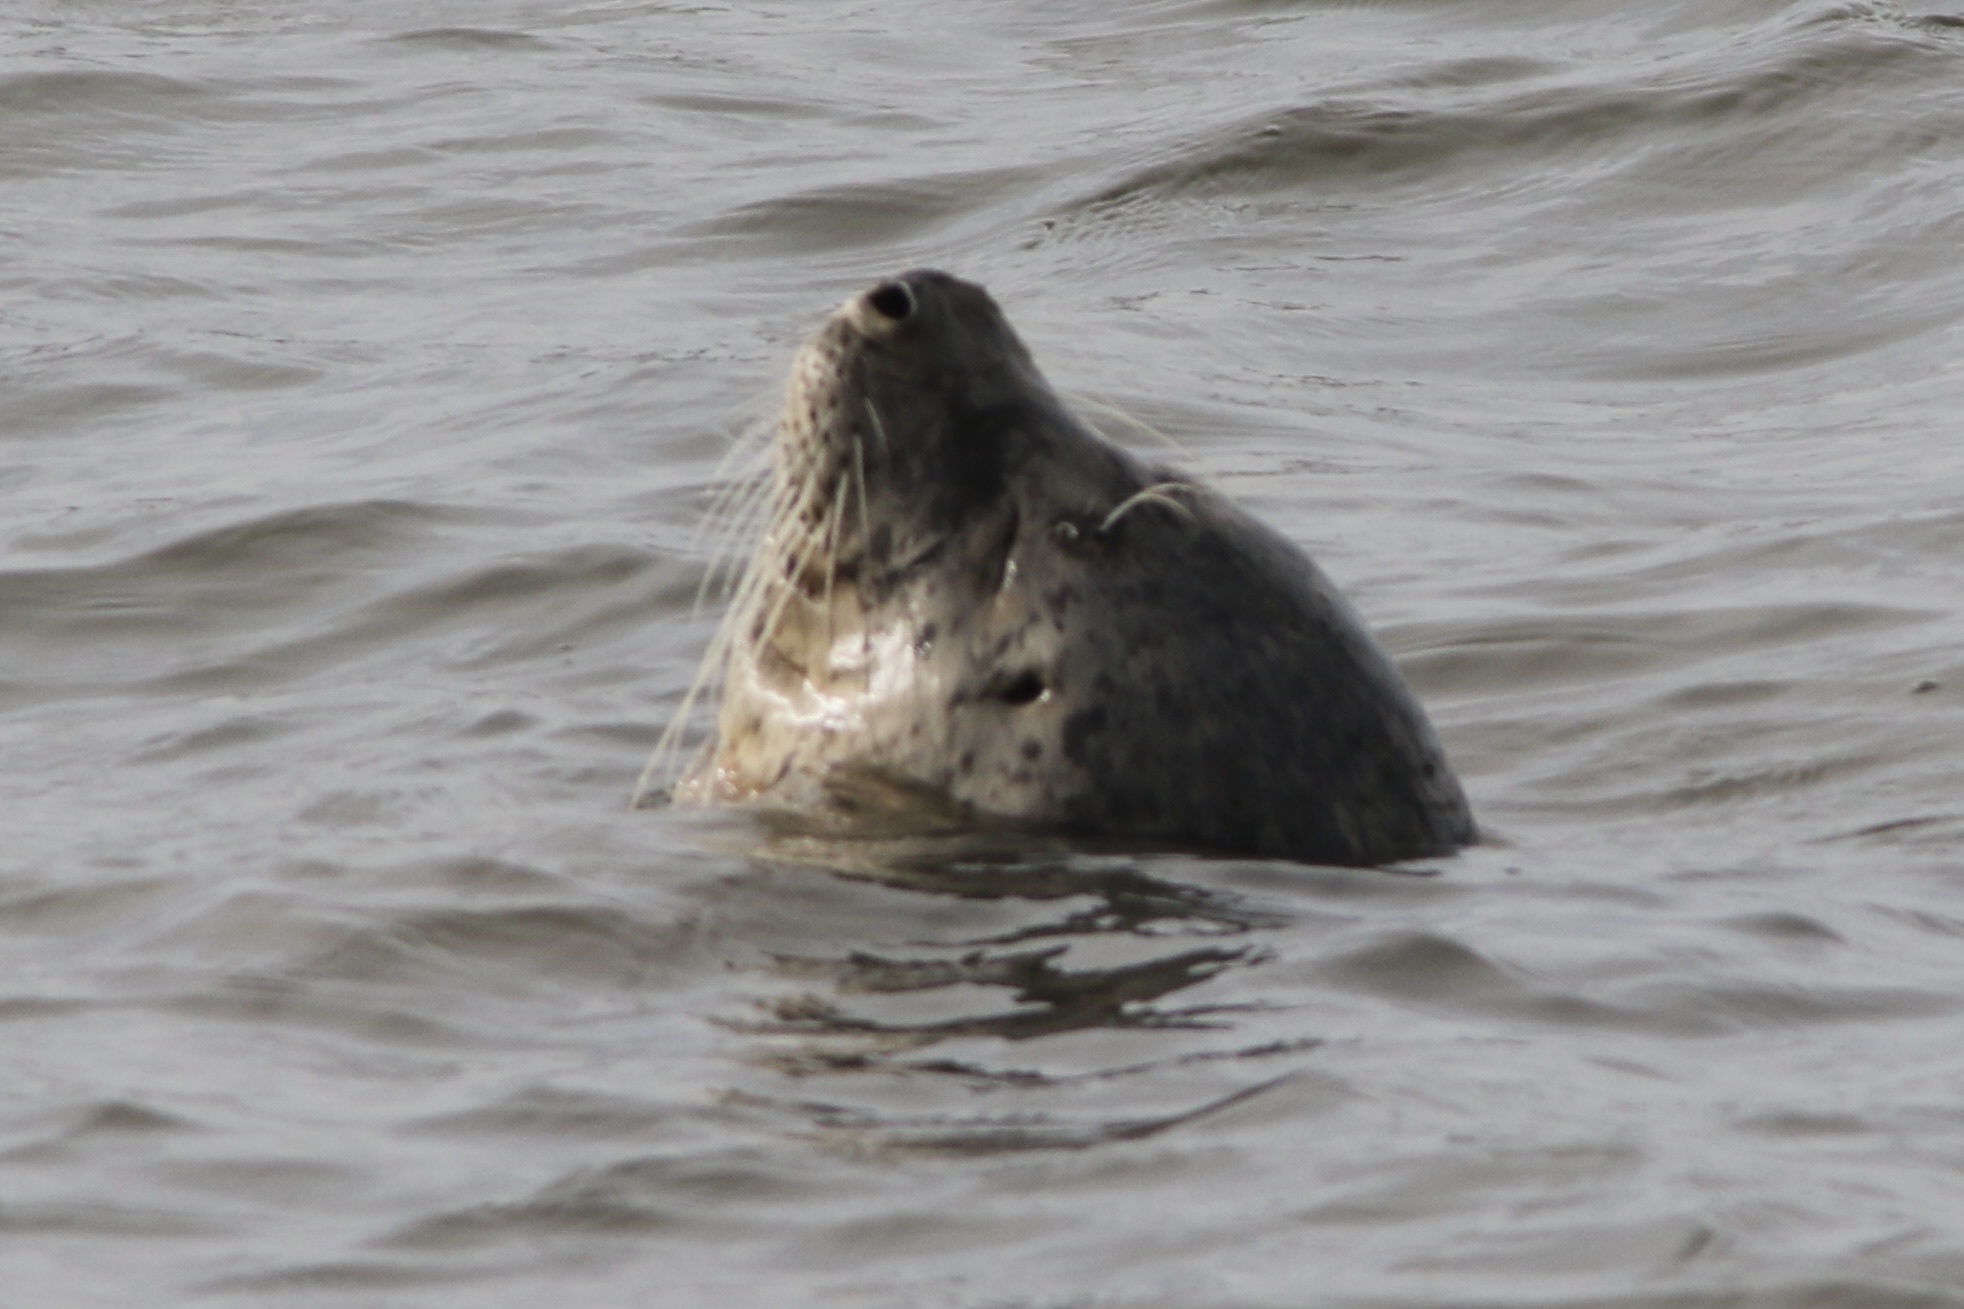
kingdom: Animalia
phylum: Chordata
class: Mammalia
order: Carnivora
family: Phocidae
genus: Phoca
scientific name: Phoca vitulina
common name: Harbor seal
